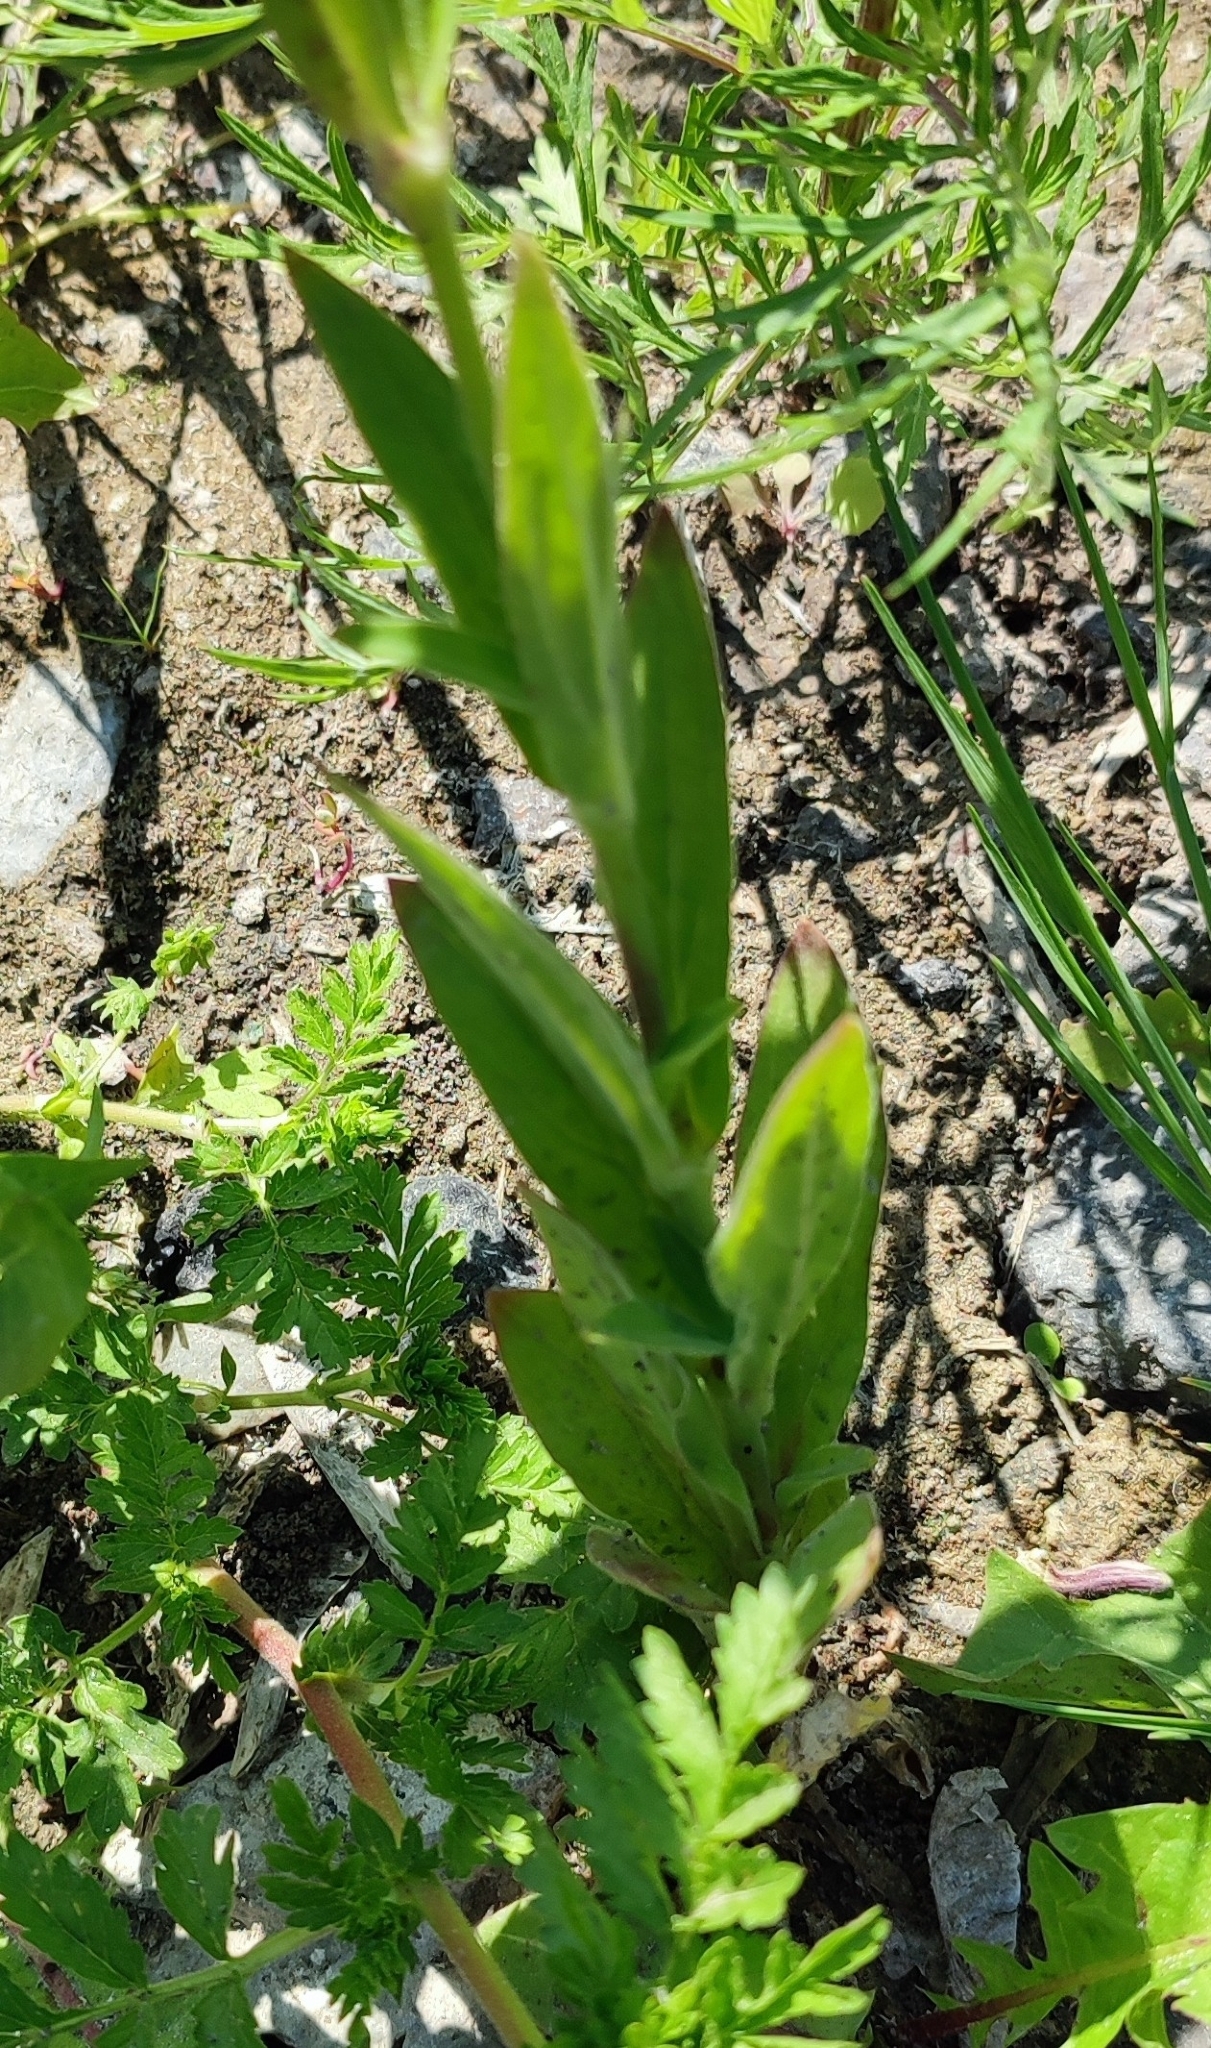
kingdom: Plantae
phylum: Tracheophyta
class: Magnoliopsida
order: Caryophyllales
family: Caryophyllaceae
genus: Silene
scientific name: Silene latifolia
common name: White campion
